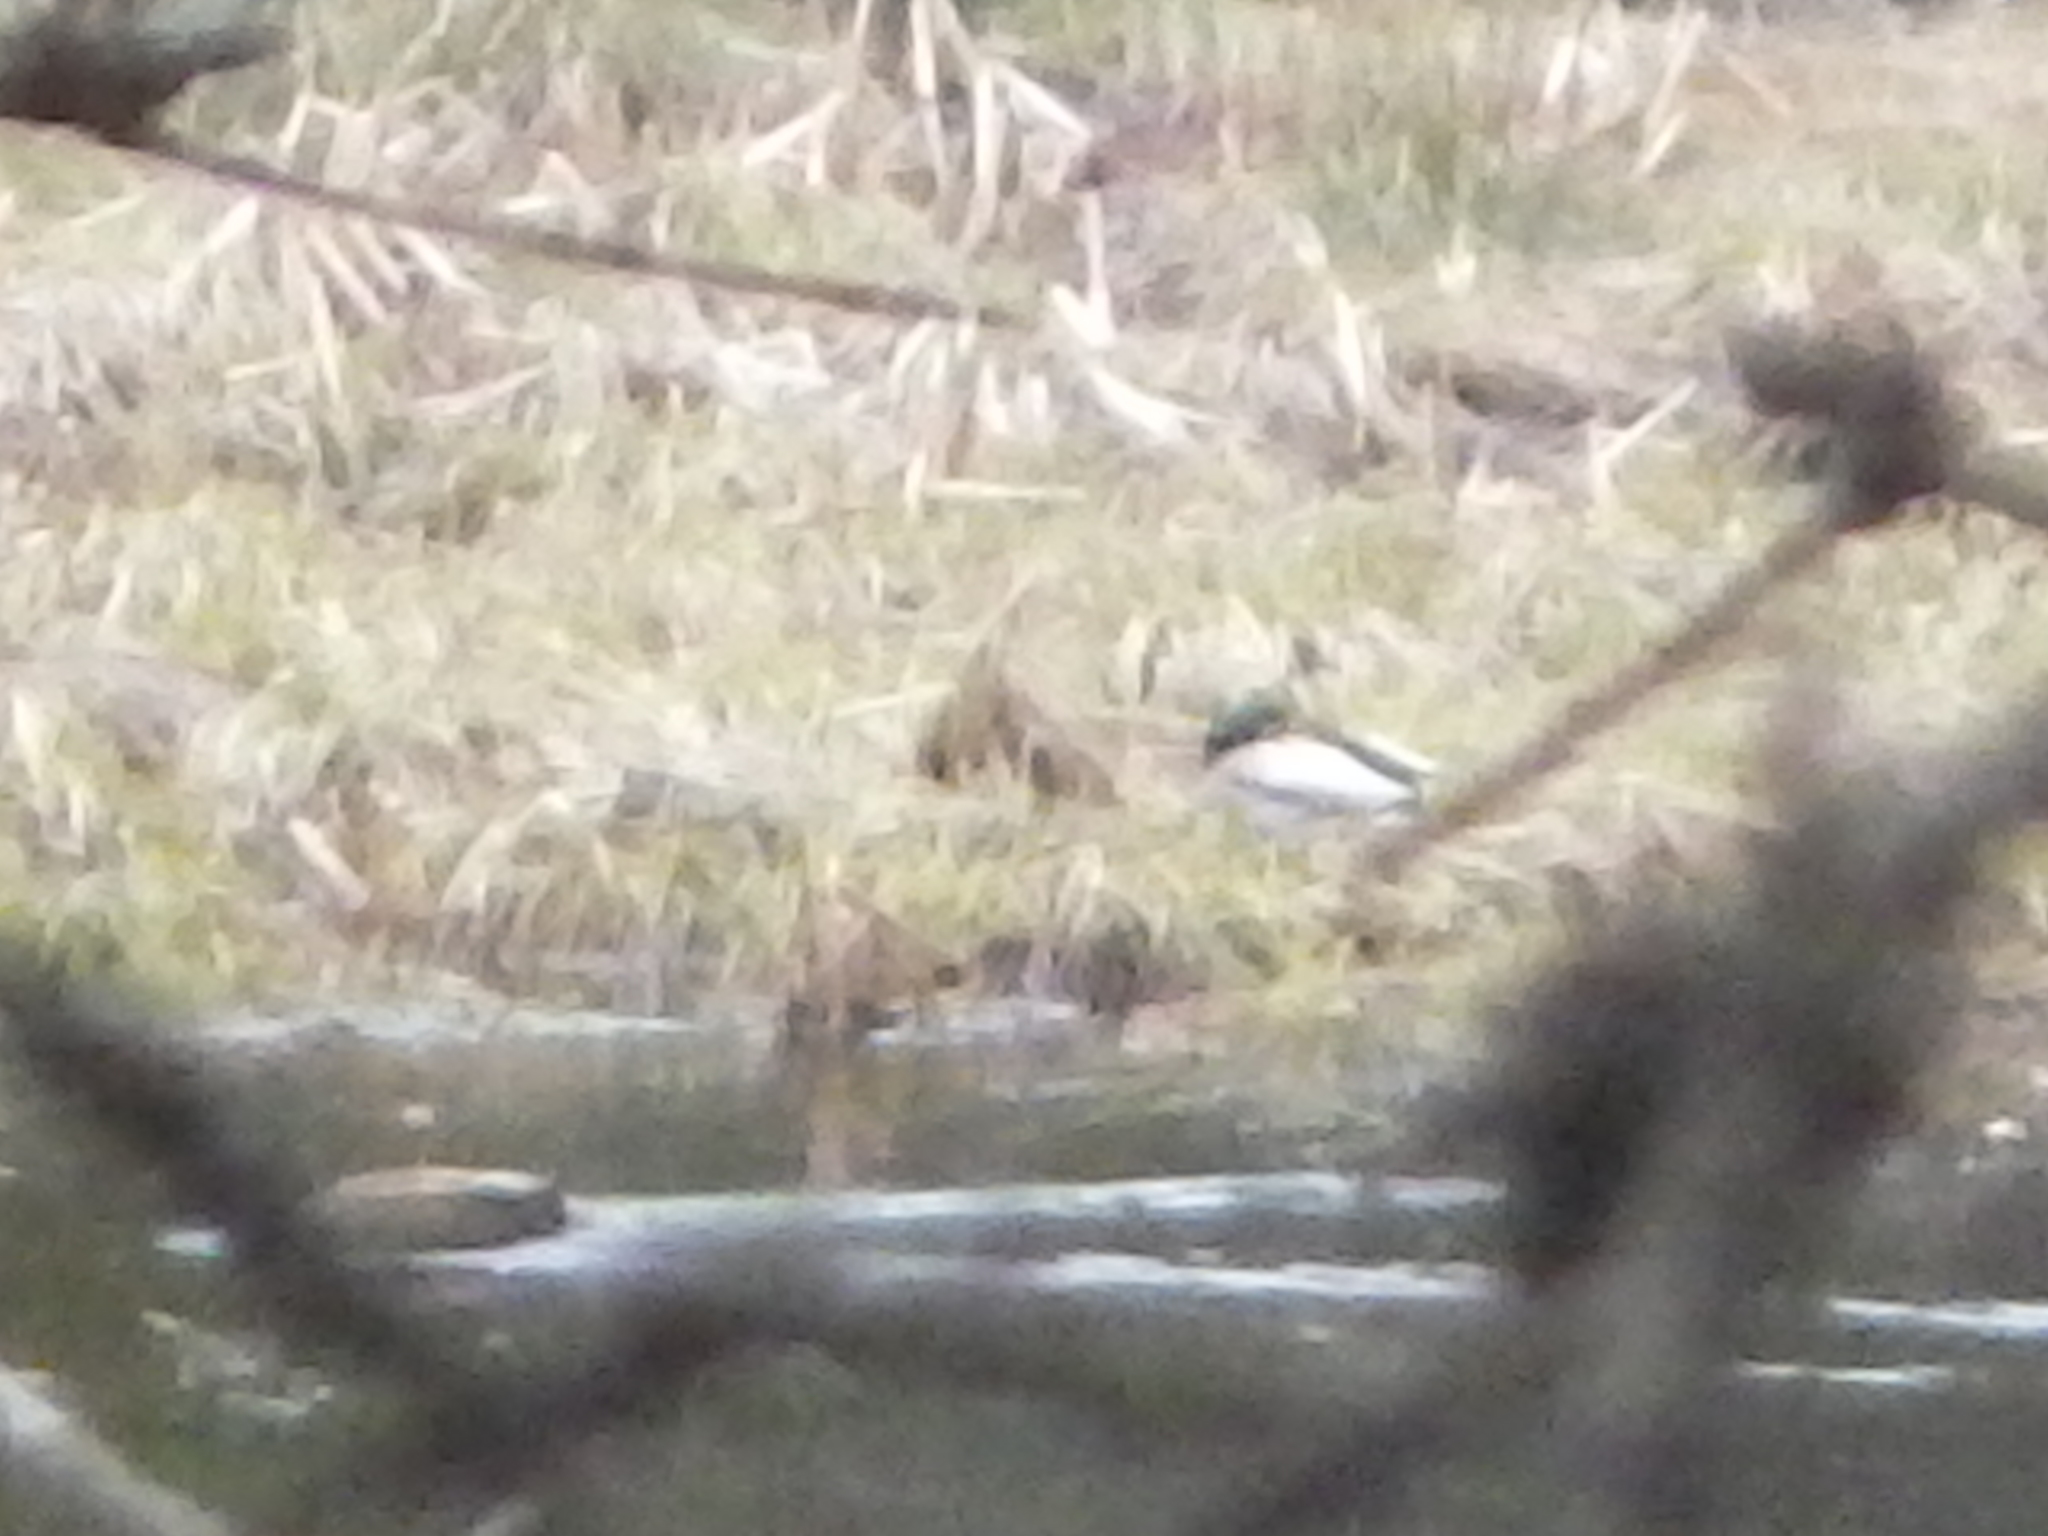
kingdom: Animalia
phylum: Chordata
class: Aves
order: Anseriformes
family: Anatidae
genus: Anas
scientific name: Anas platyrhynchos
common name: Mallard
